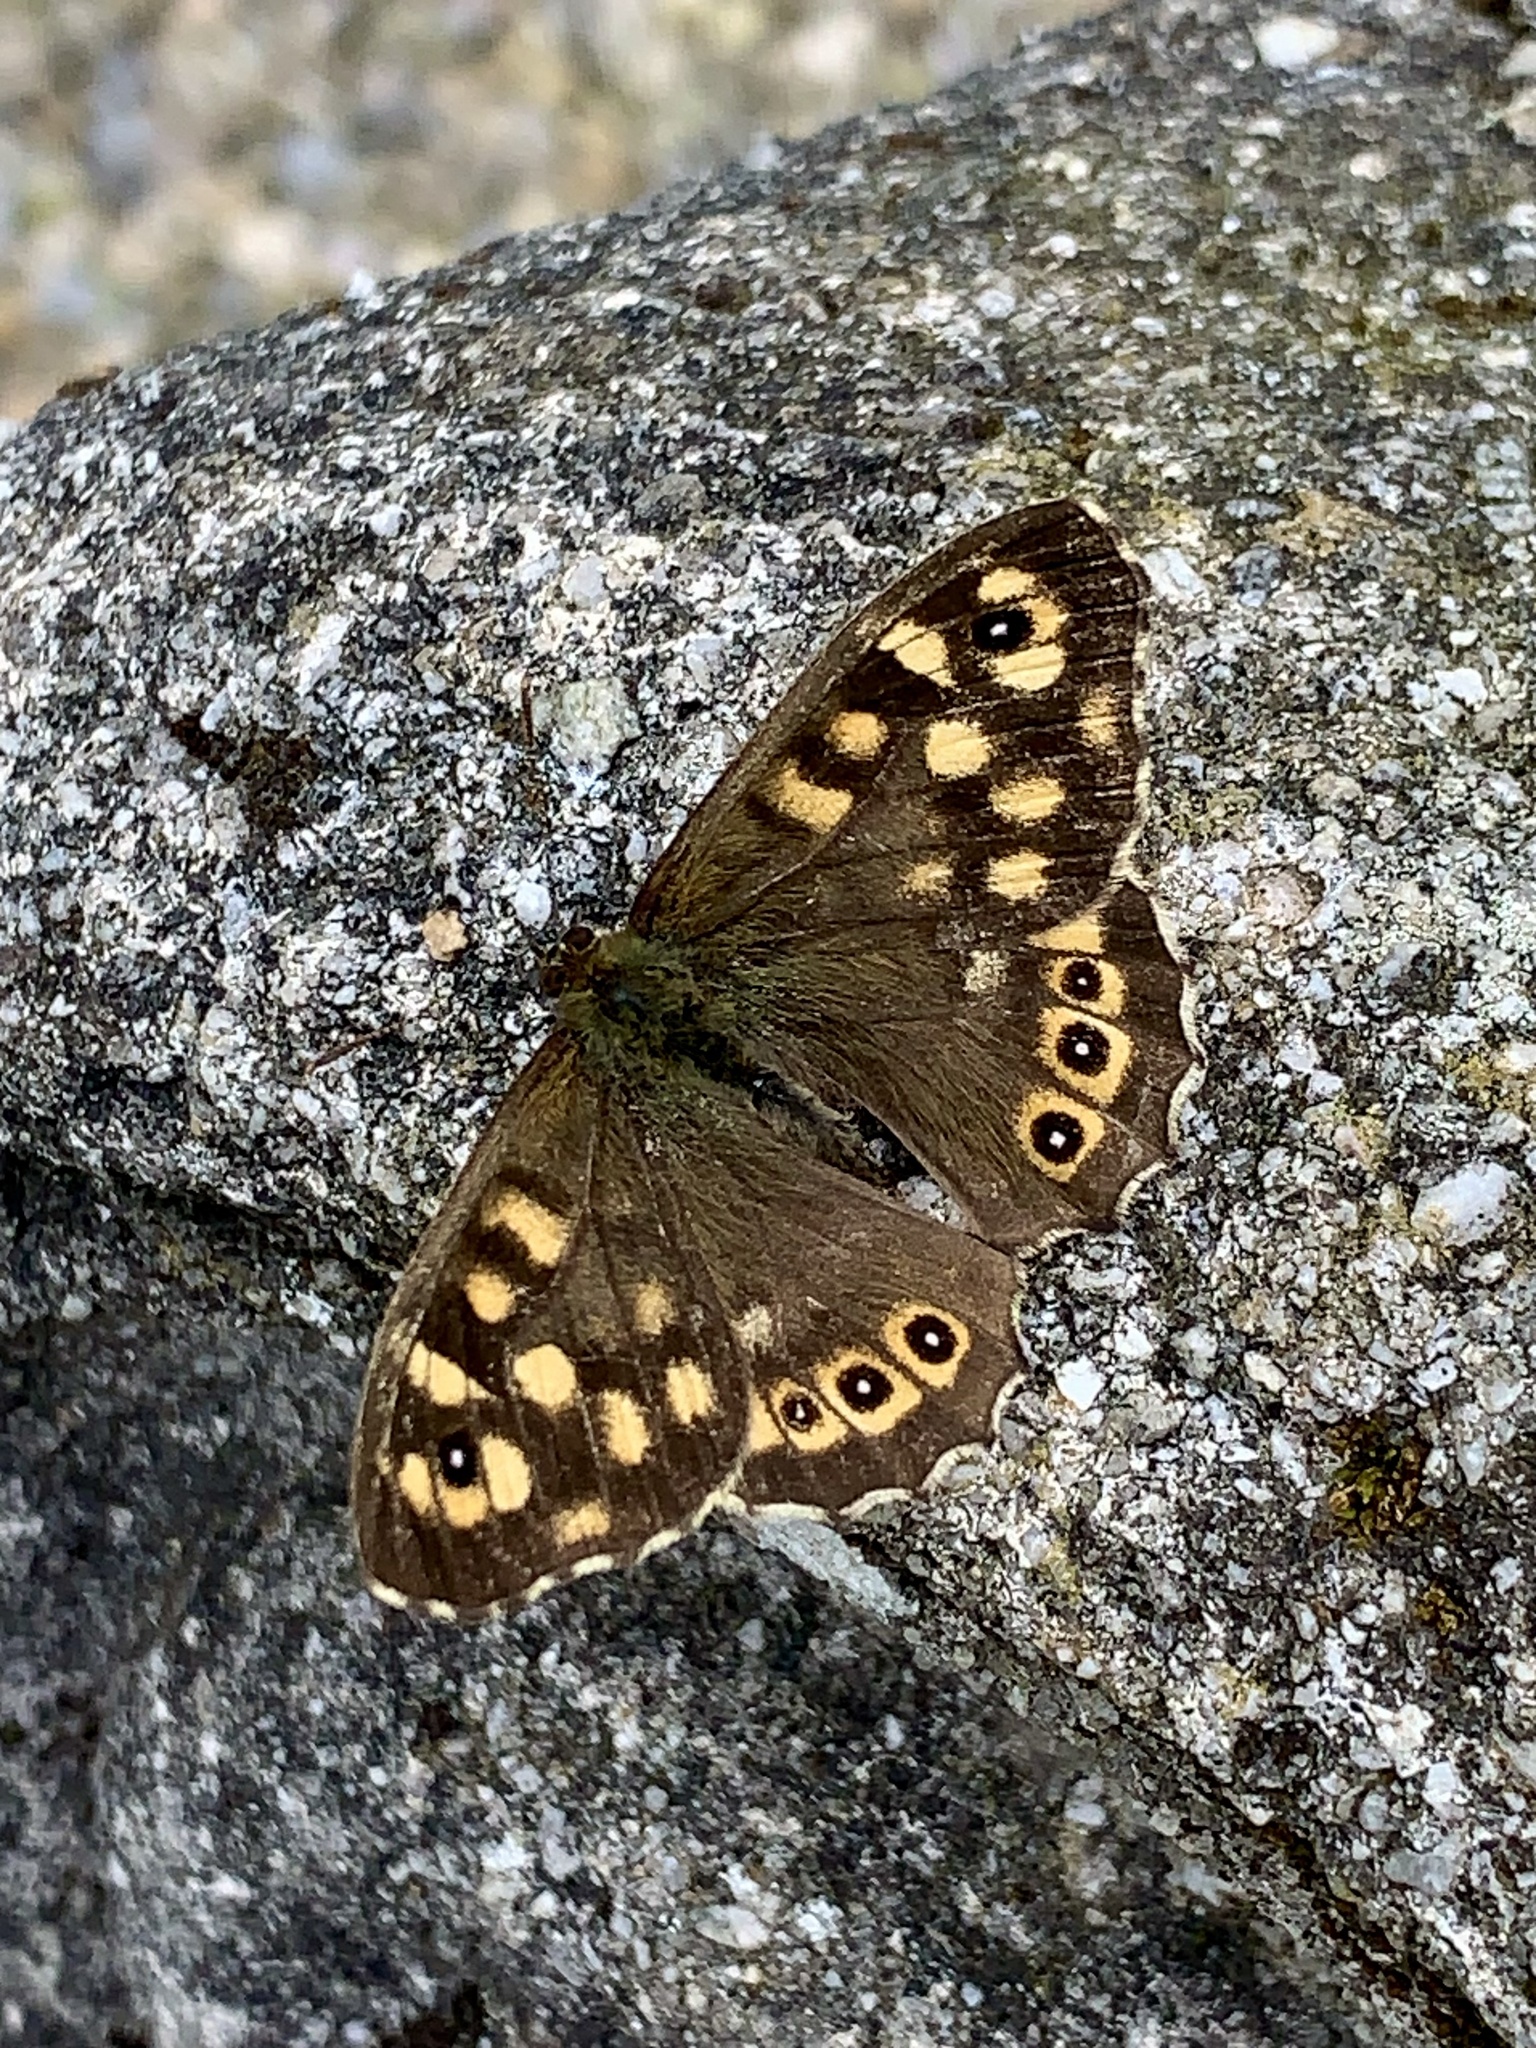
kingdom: Animalia
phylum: Arthropoda
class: Insecta
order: Lepidoptera
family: Nymphalidae
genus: Pararge
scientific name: Pararge aegeria
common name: Speckled wood
